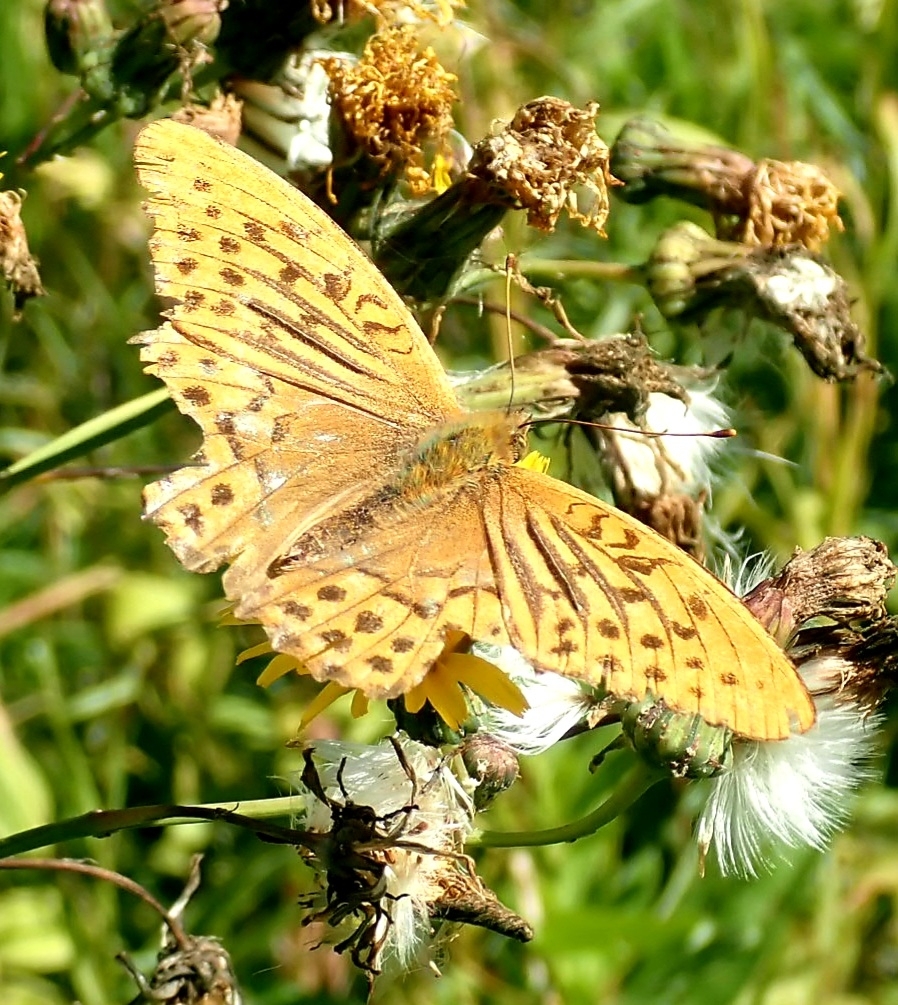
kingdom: Animalia
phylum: Arthropoda
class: Insecta
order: Lepidoptera
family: Nymphalidae
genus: Argynnis
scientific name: Argynnis paphia
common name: Silver-washed fritillary
